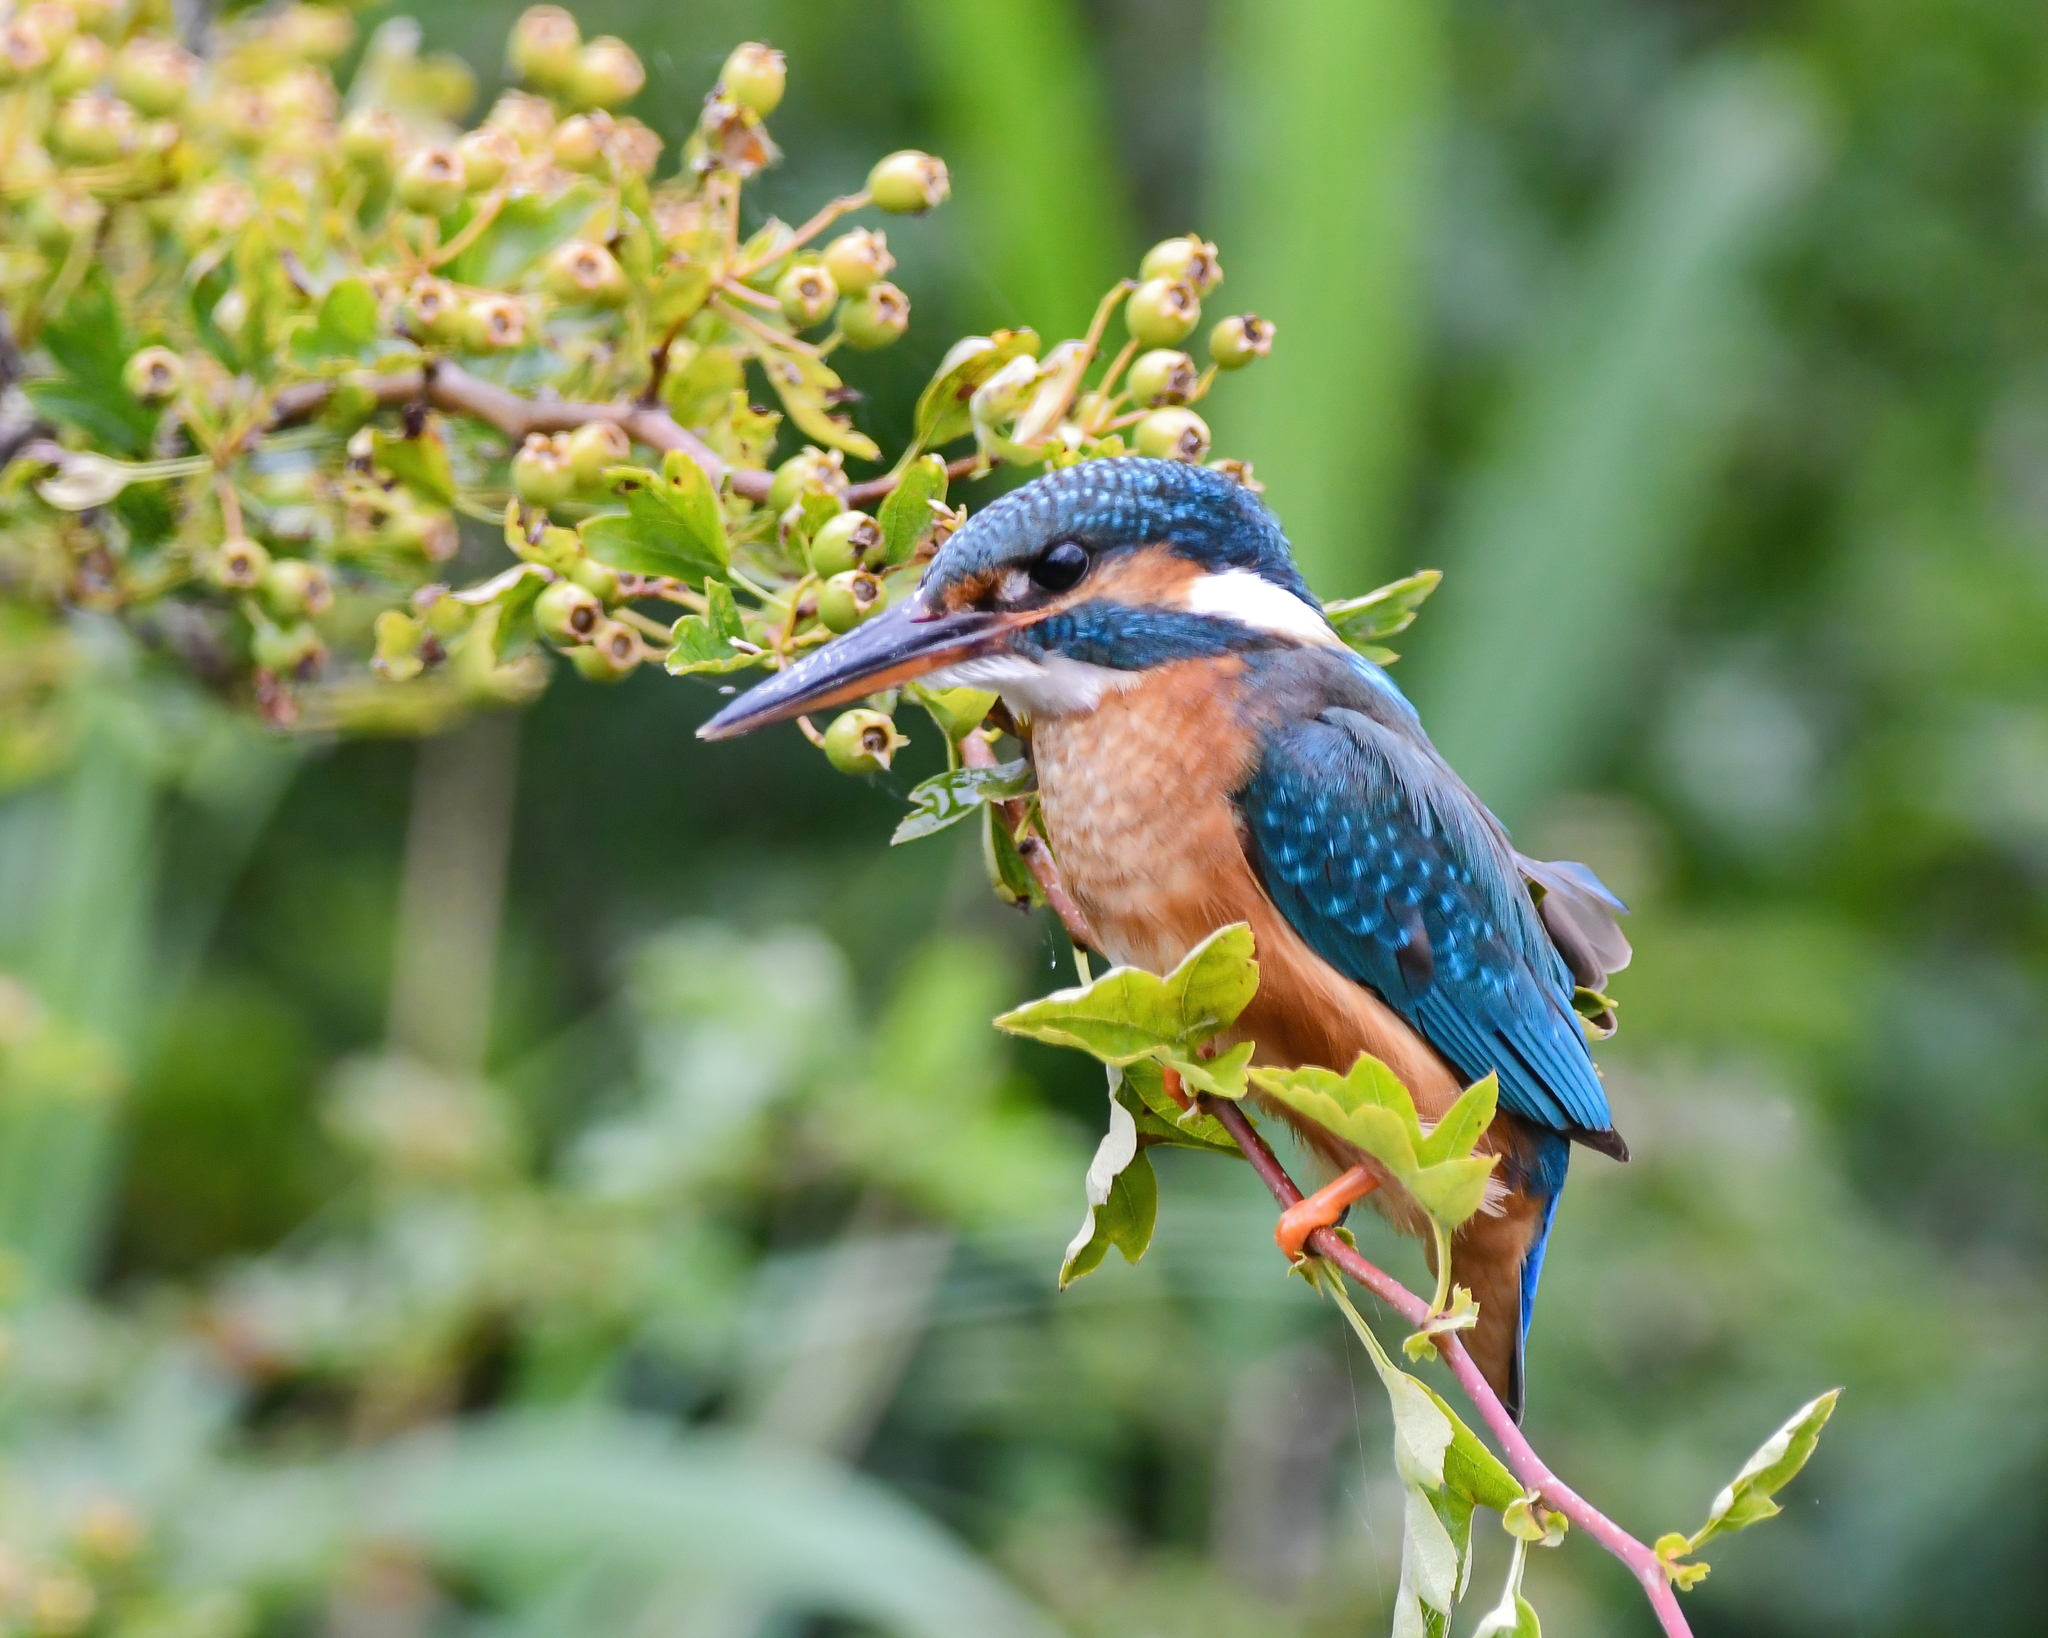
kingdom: Animalia
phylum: Chordata
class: Aves
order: Coraciiformes
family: Alcedinidae
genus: Alcedo
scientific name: Alcedo atthis
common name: Common kingfisher
